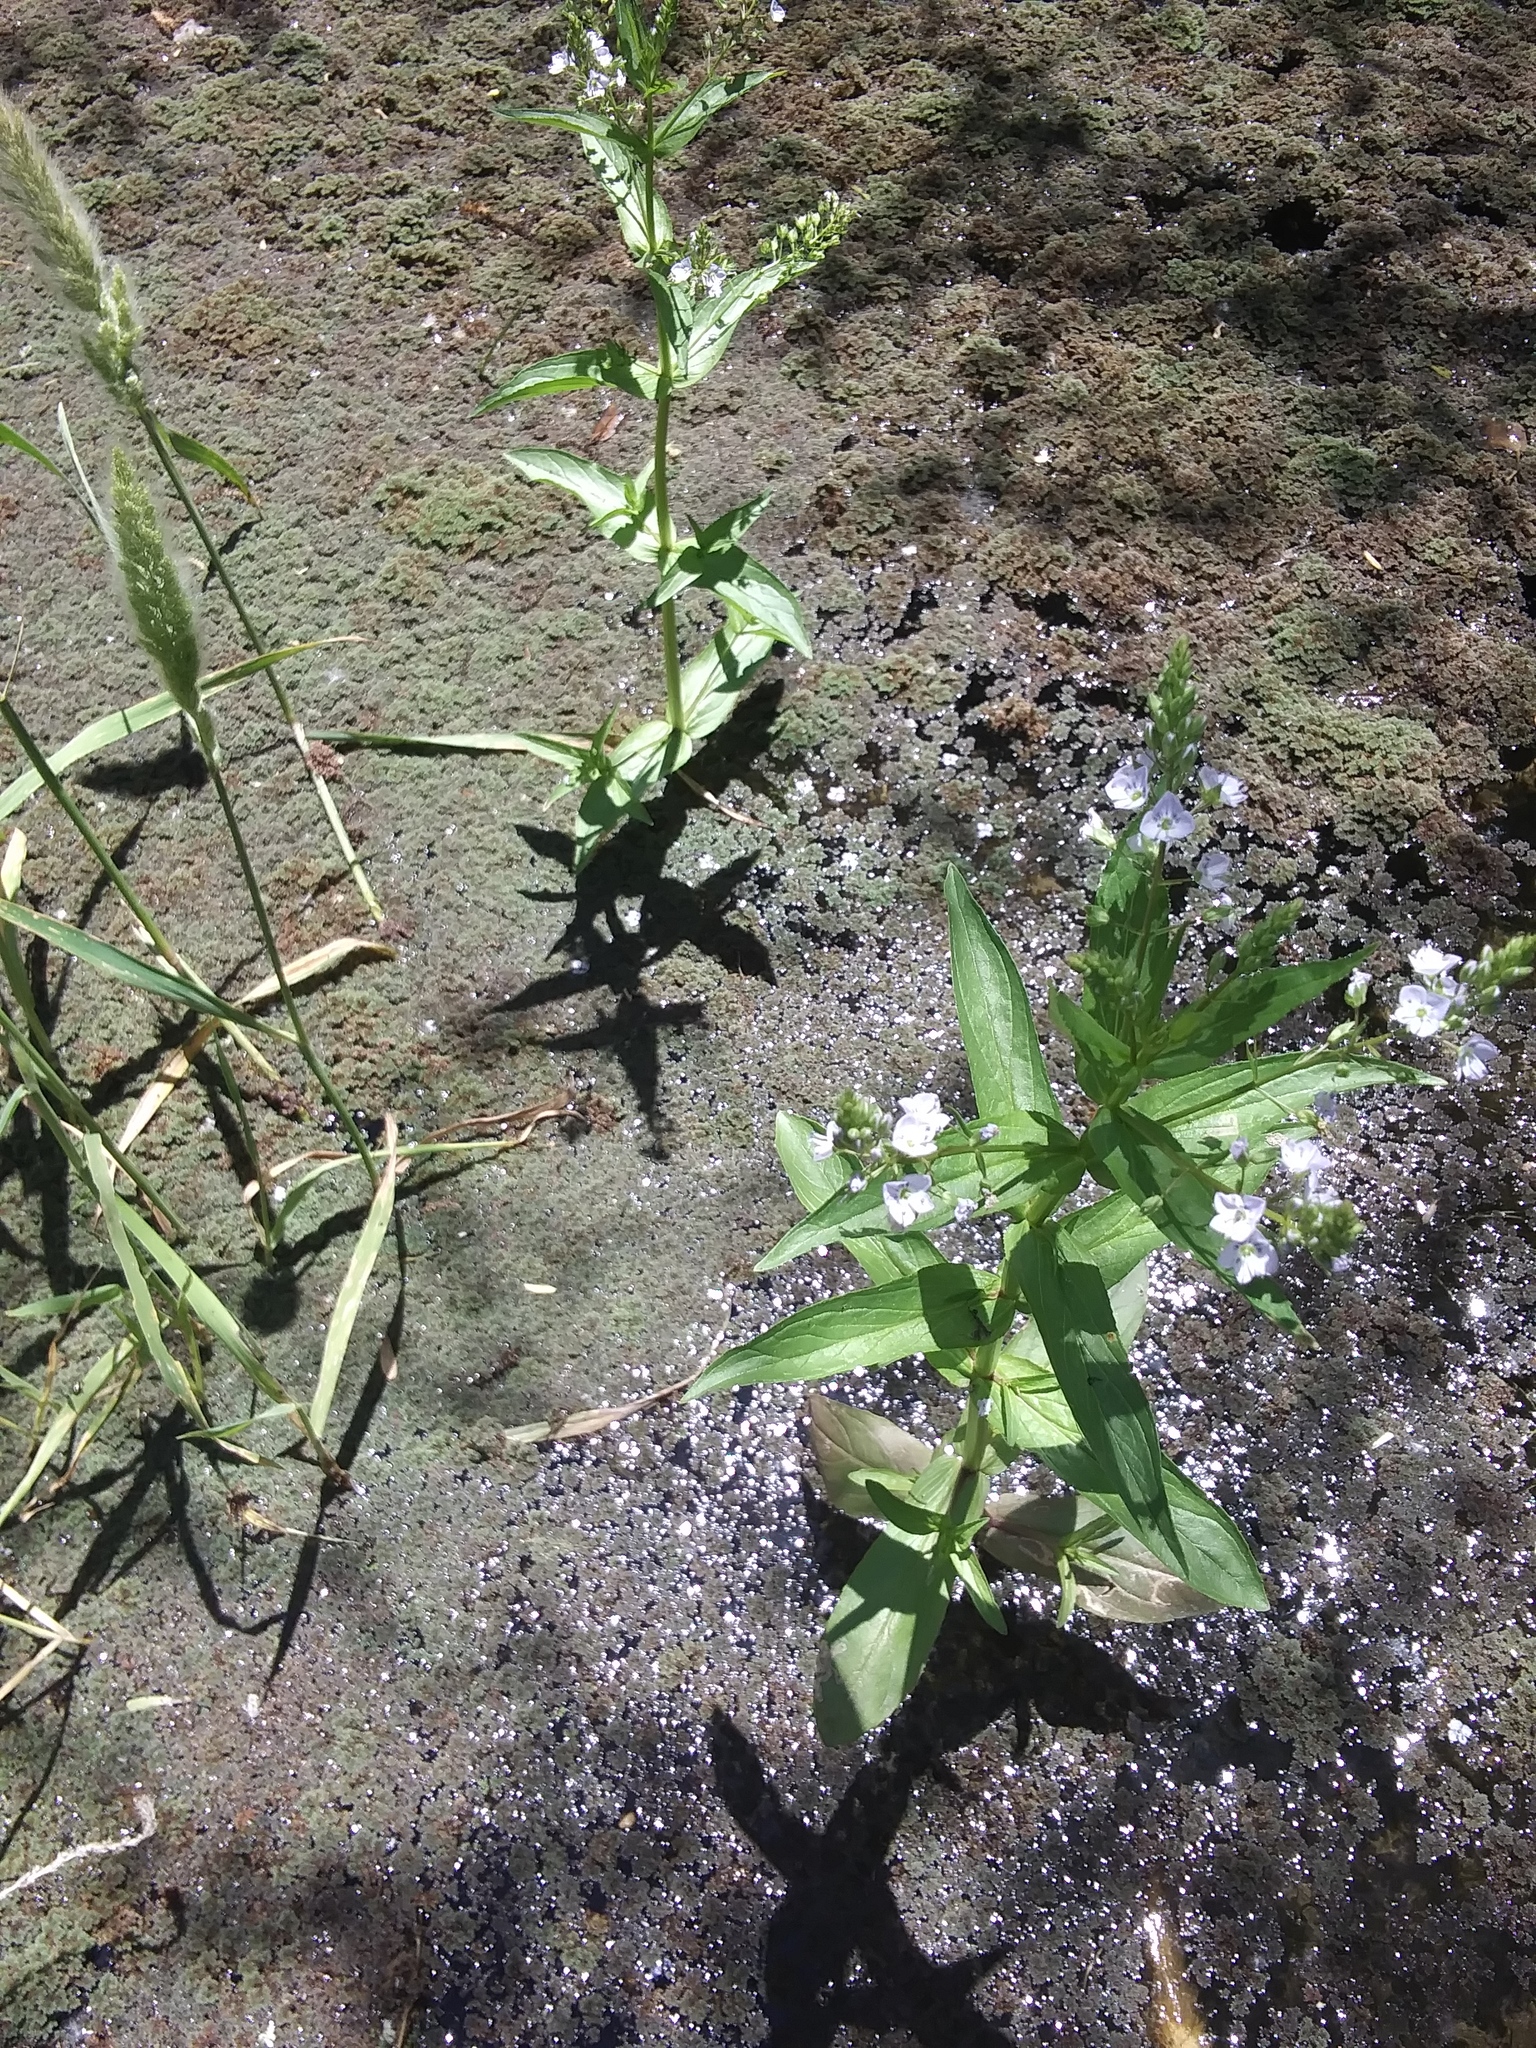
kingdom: Plantae
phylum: Tracheophyta
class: Magnoliopsida
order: Lamiales
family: Plantaginaceae
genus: Veronica
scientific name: Veronica anagallis-aquatica
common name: Water speedwell
